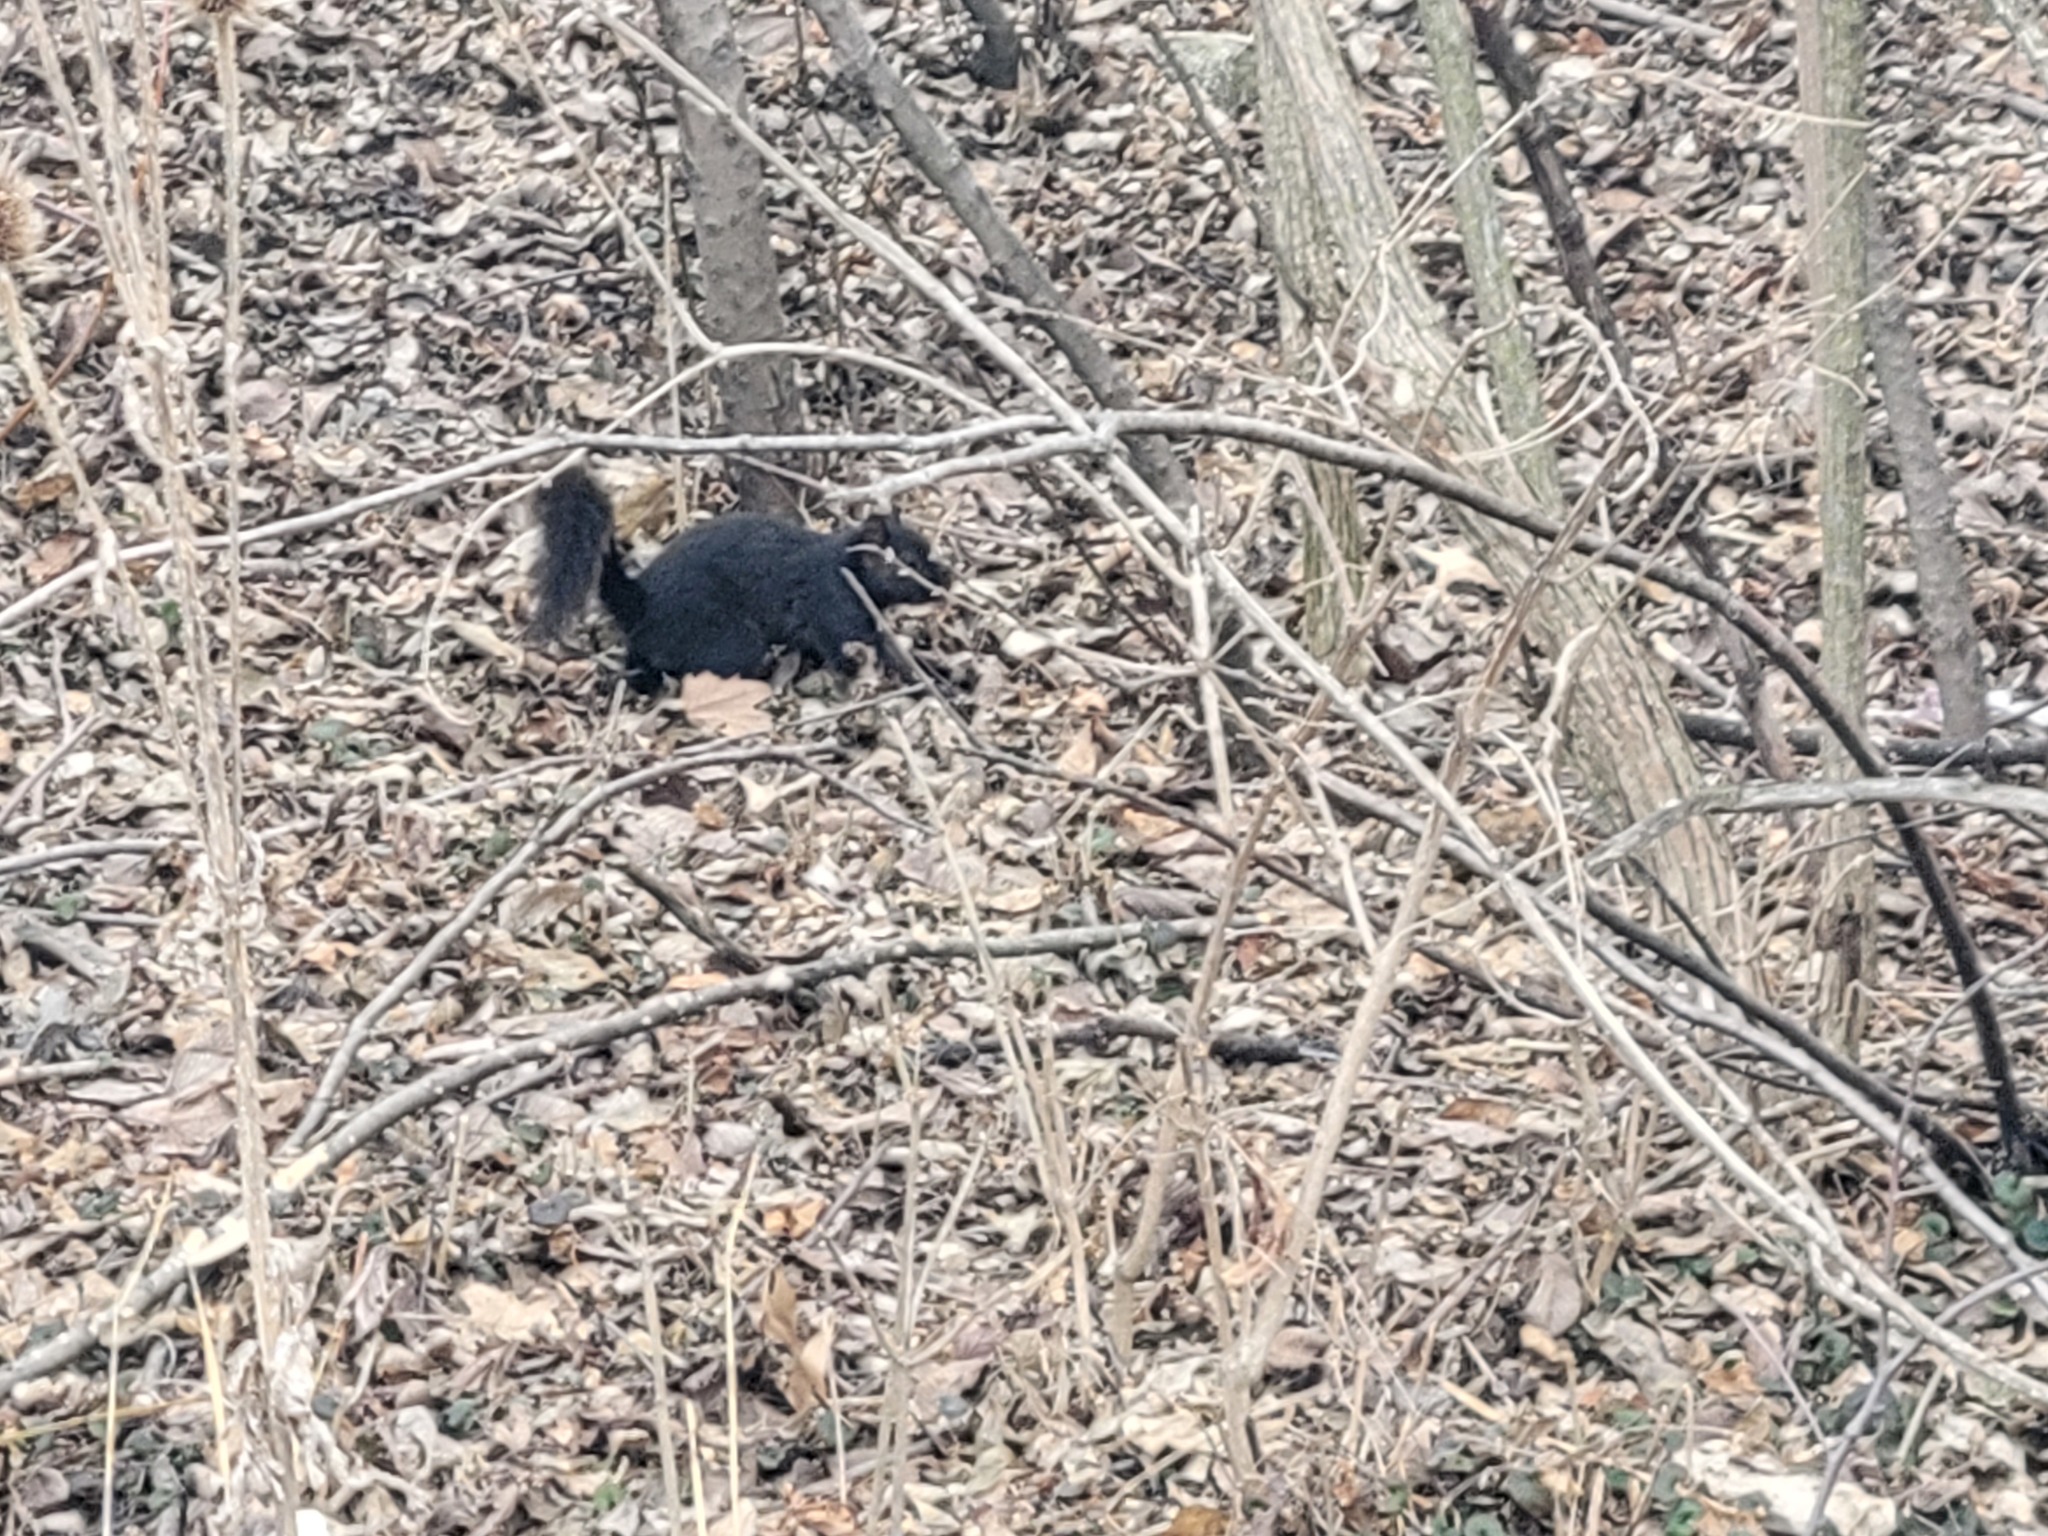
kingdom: Animalia
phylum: Chordata
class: Mammalia
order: Rodentia
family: Sciuridae
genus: Sciurus
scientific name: Sciurus carolinensis
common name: Eastern gray squirrel
